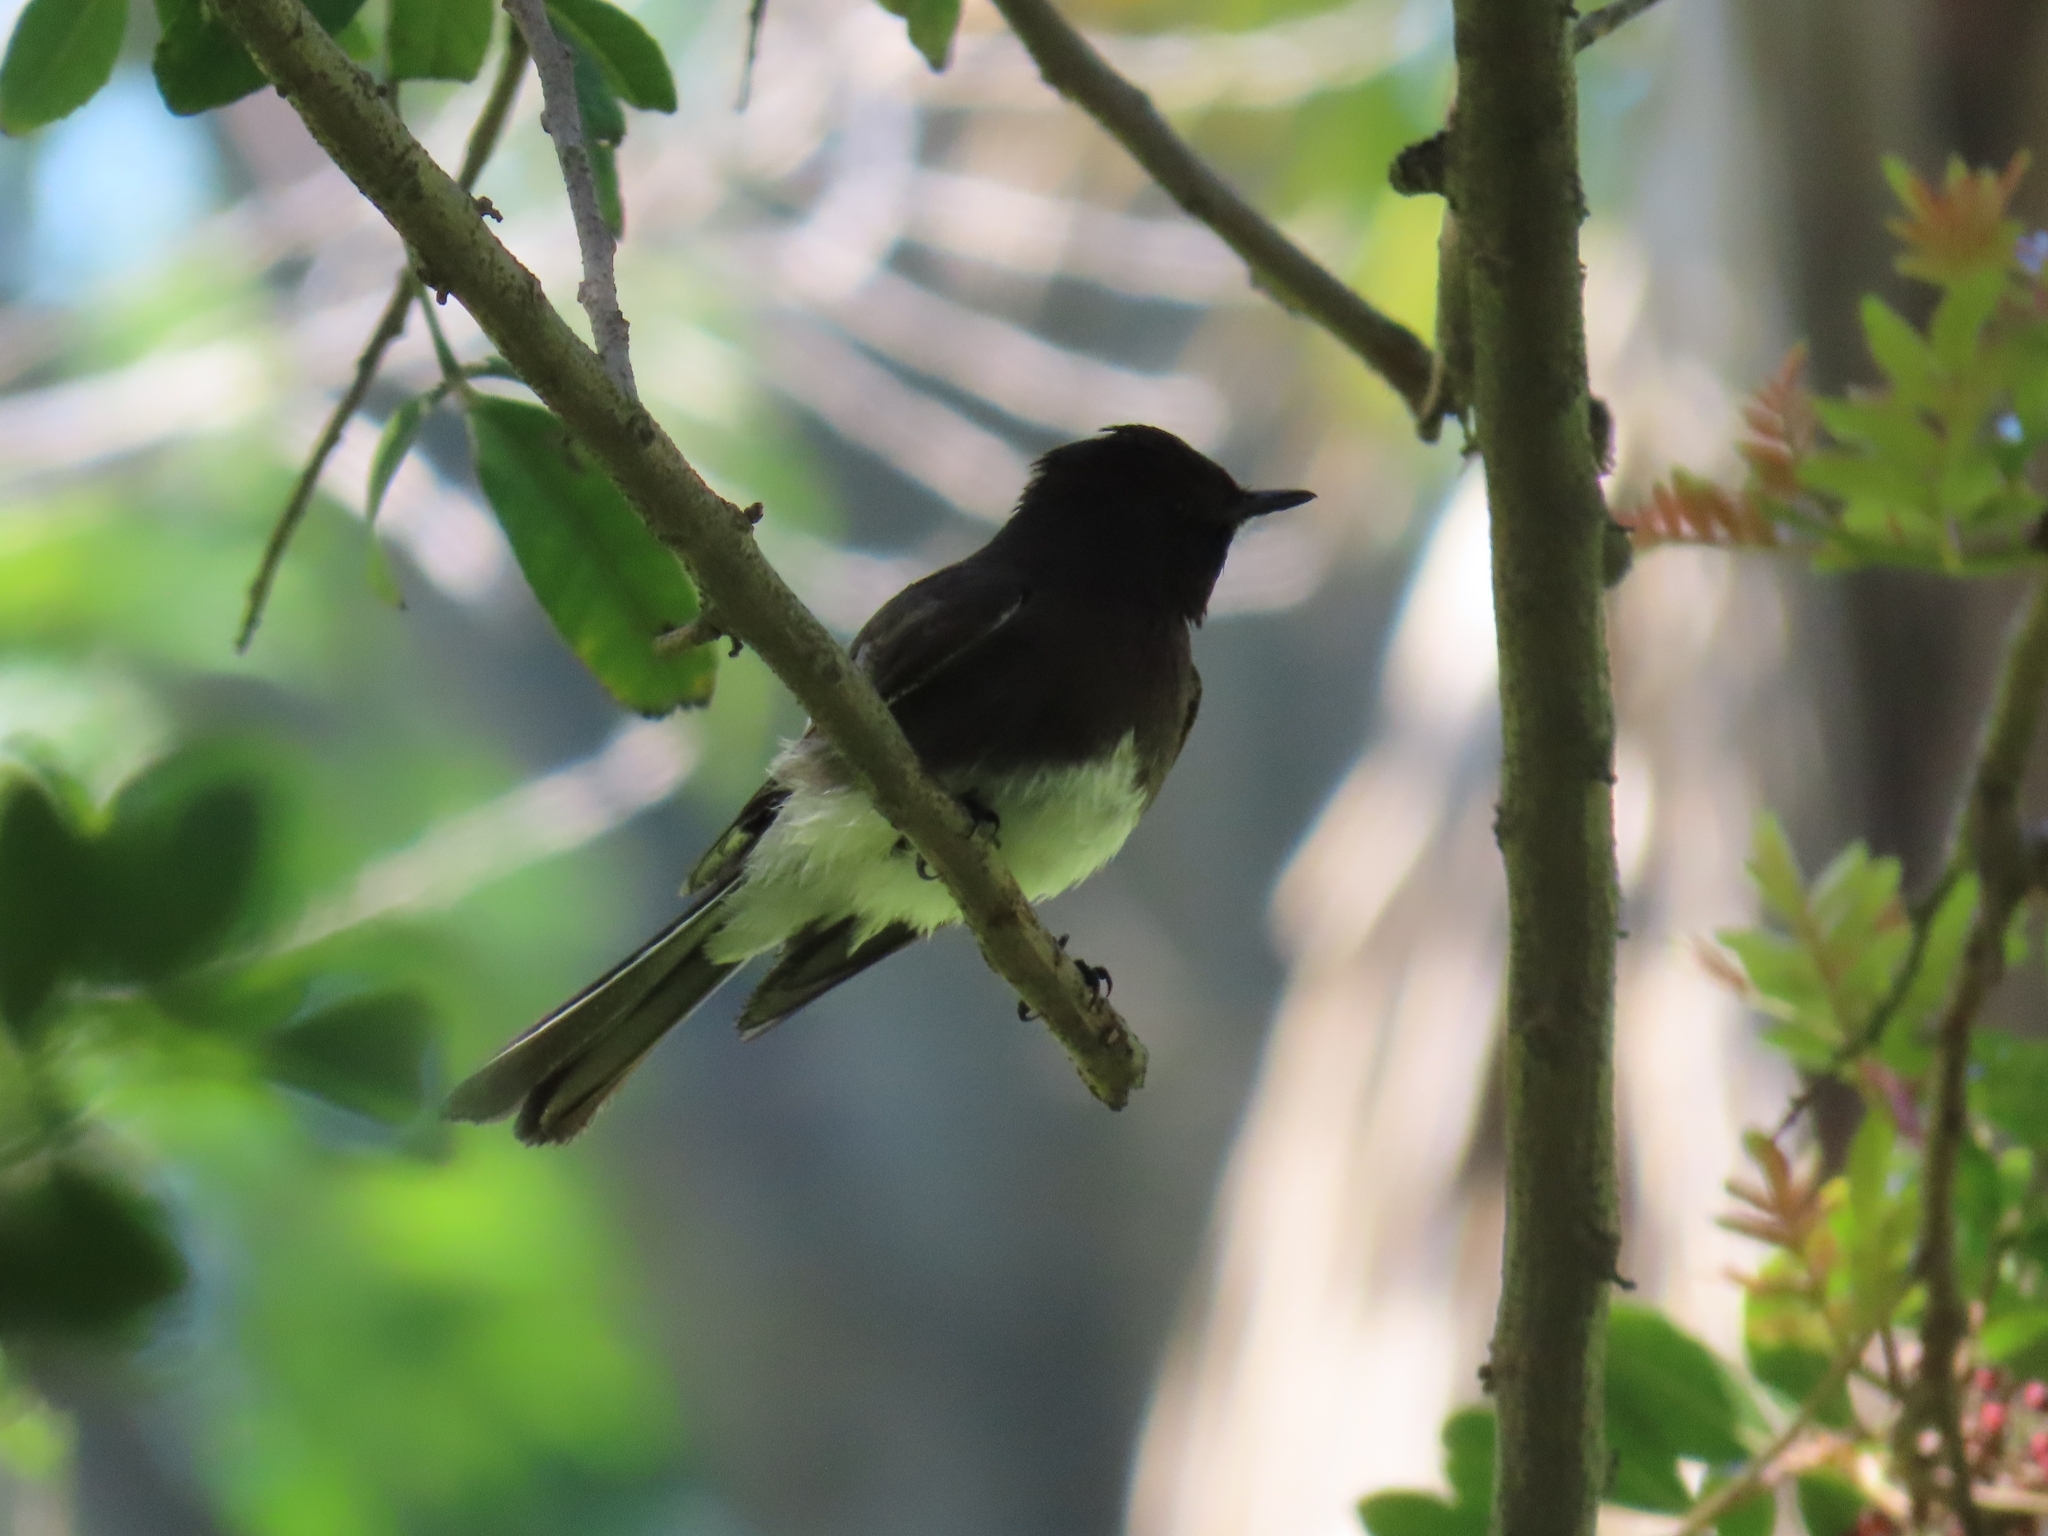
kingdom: Animalia
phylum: Chordata
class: Aves
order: Passeriformes
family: Tyrannidae
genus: Sayornis
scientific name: Sayornis nigricans
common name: Black phoebe
